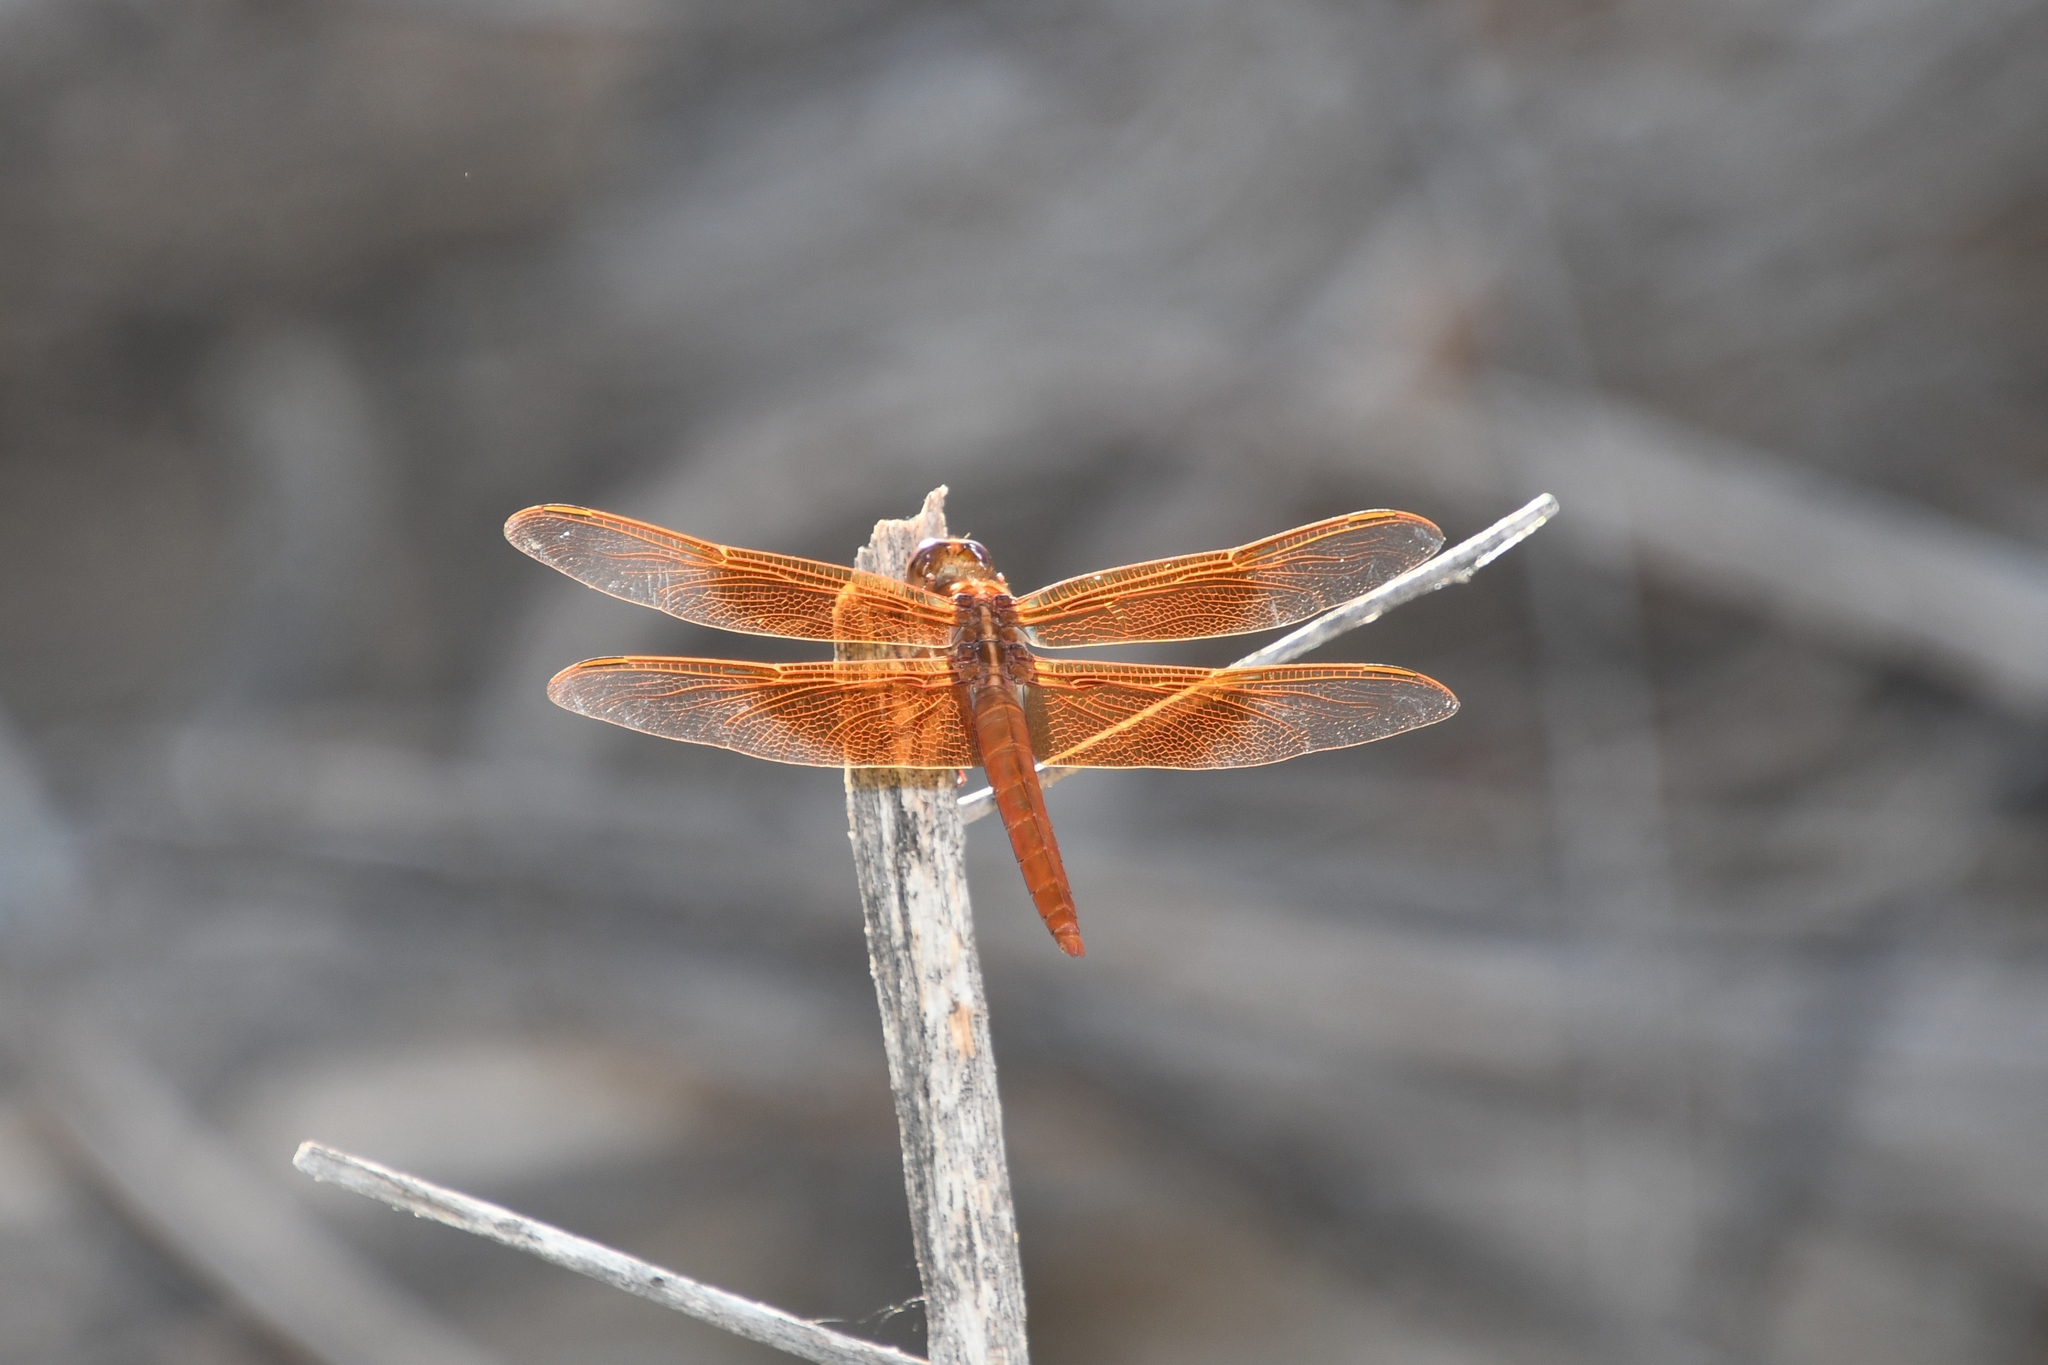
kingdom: Animalia
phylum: Arthropoda
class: Insecta
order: Odonata
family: Libellulidae
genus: Libellula
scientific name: Libellula saturata
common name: Flame skimmer
